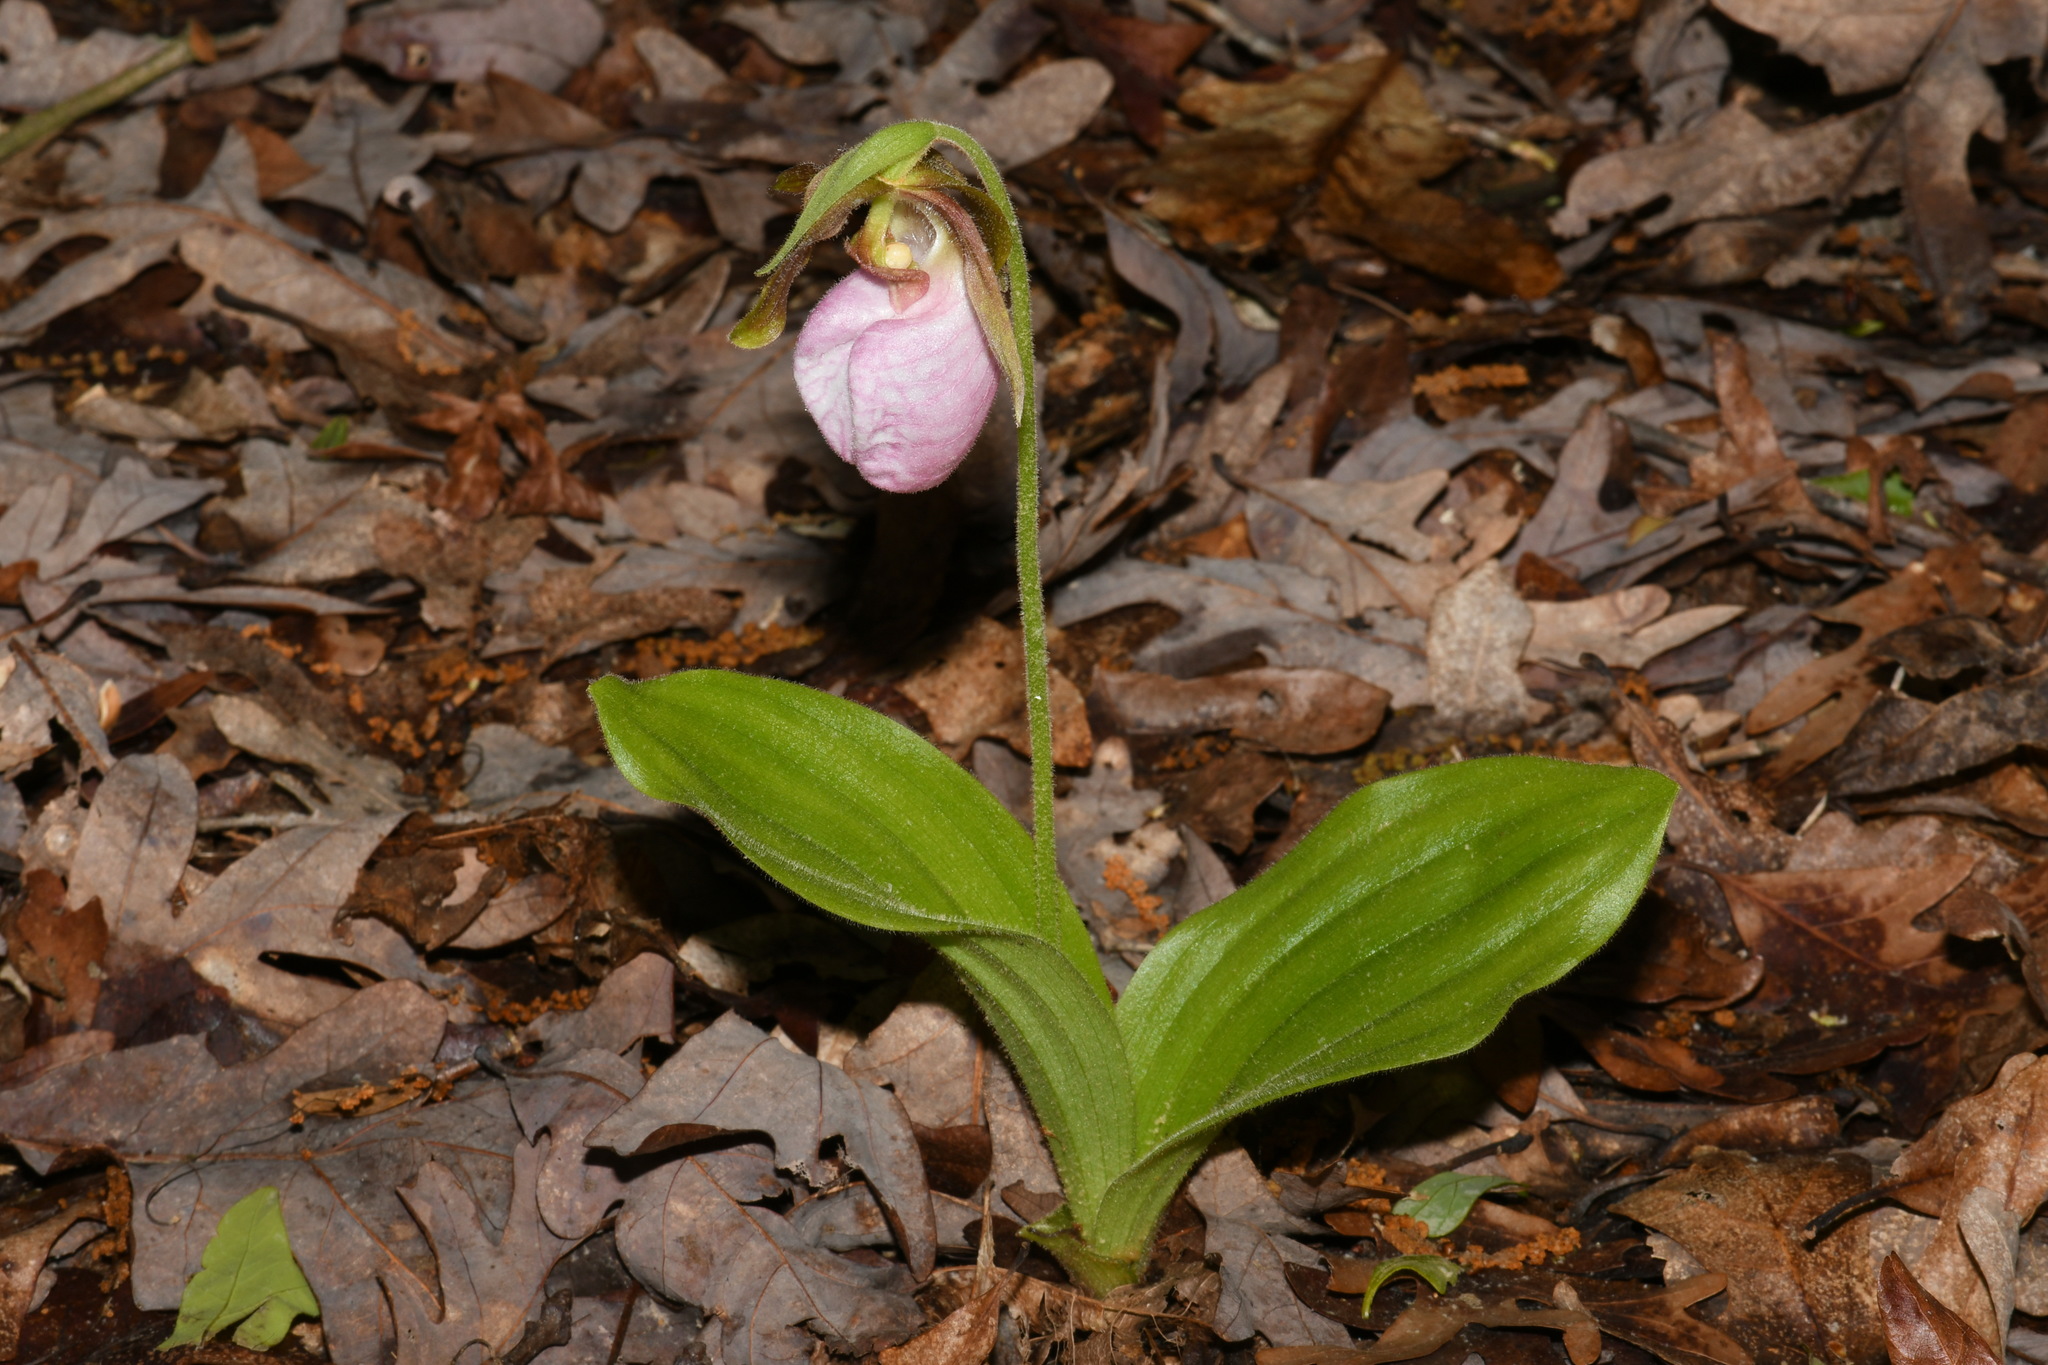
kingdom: Plantae
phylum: Tracheophyta
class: Liliopsida
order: Asparagales
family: Orchidaceae
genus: Cypripedium
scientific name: Cypripedium acaule
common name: Pink lady's-slipper
